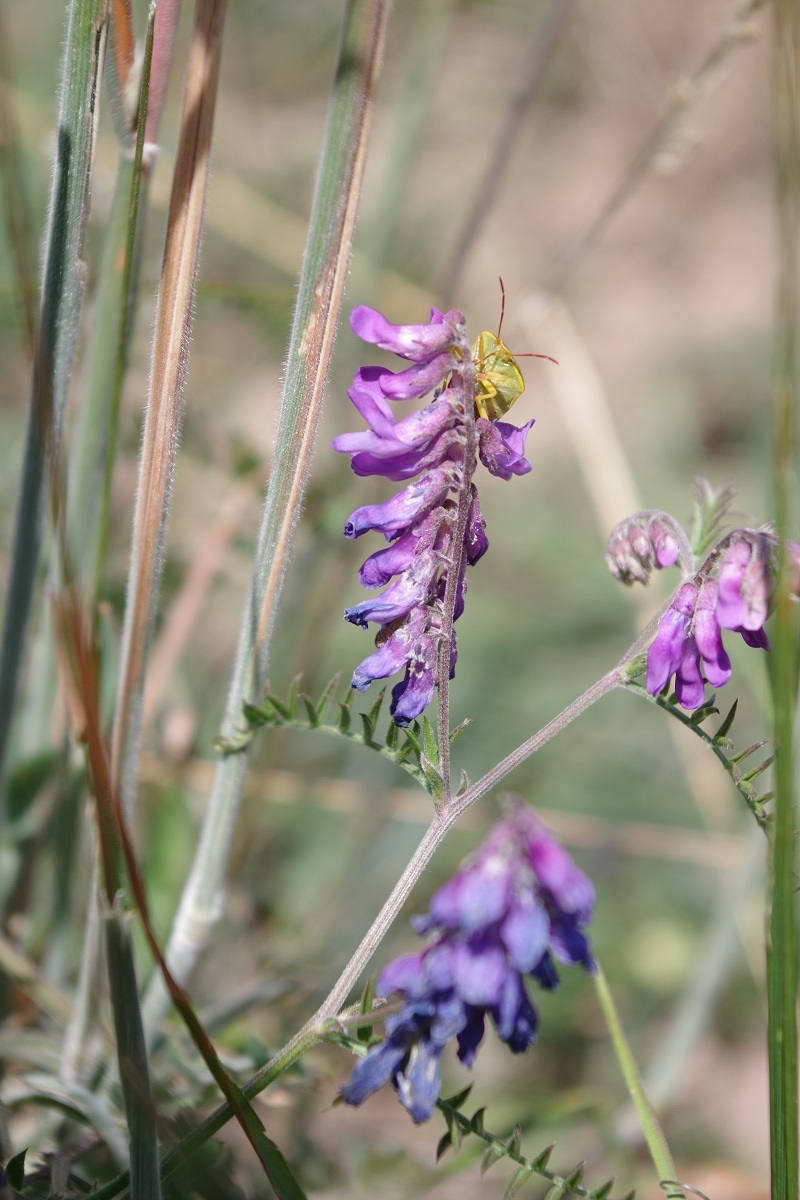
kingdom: Plantae
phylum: Tracheophyta
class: Magnoliopsida
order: Fabales
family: Fabaceae
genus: Vicia
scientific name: Vicia cracca
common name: Bird vetch
